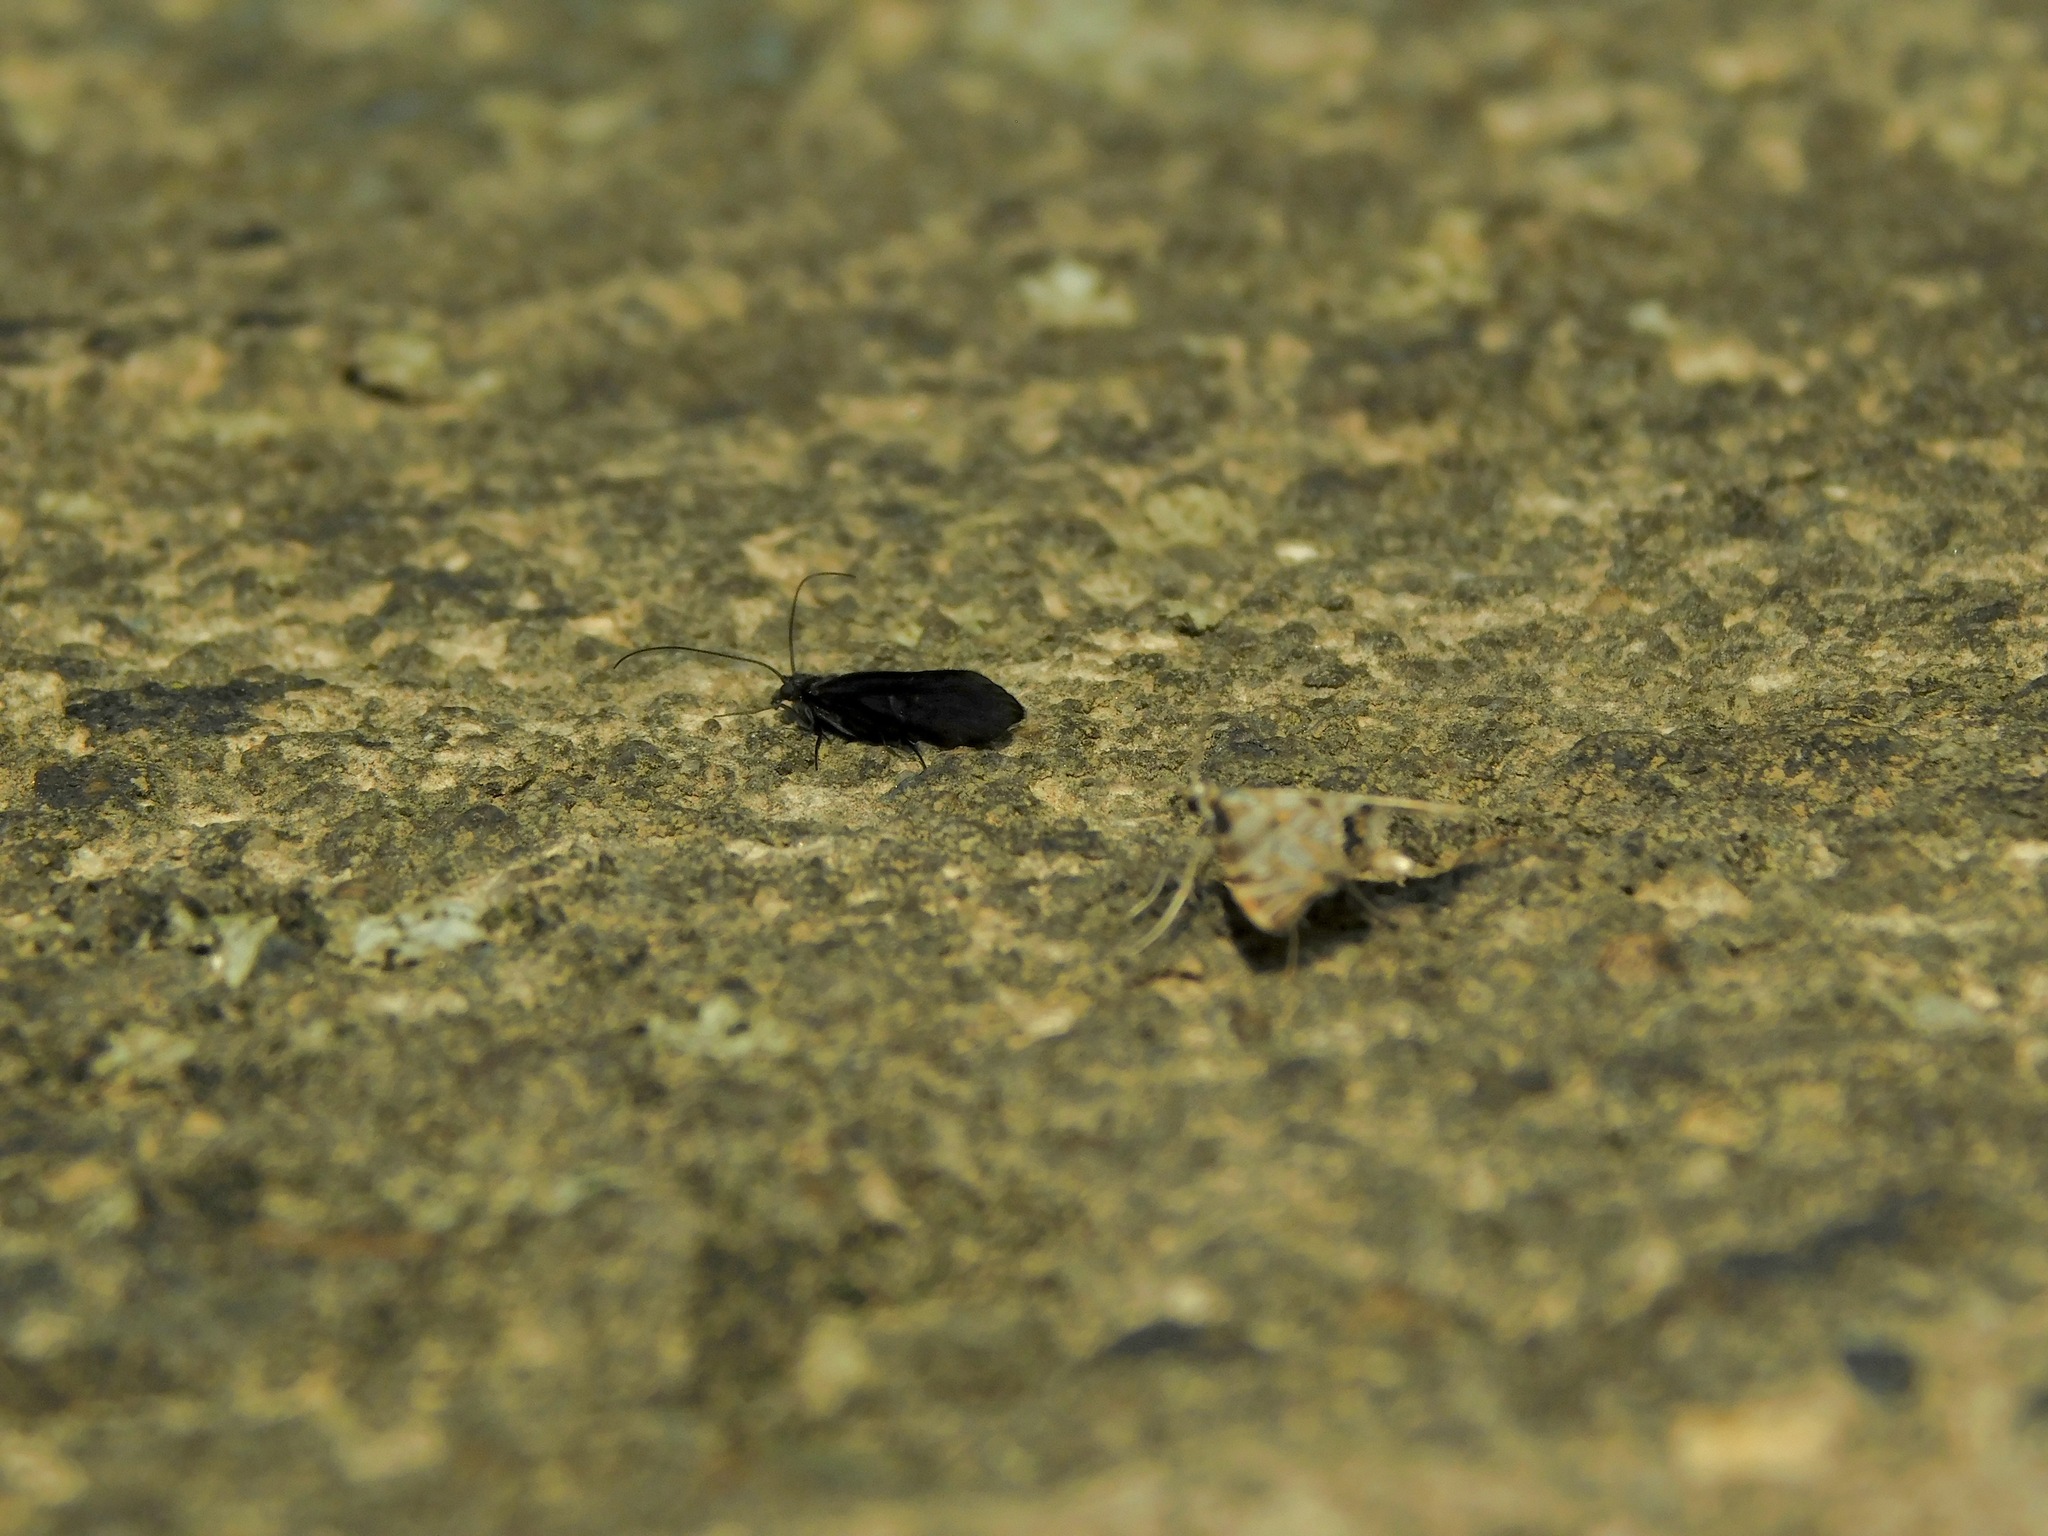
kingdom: Animalia
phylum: Arthropoda
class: Insecta
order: Trichoptera
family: Leptoceridae
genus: Mystacides
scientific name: Mystacides sepulchralis
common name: Black dancer caddisfly
